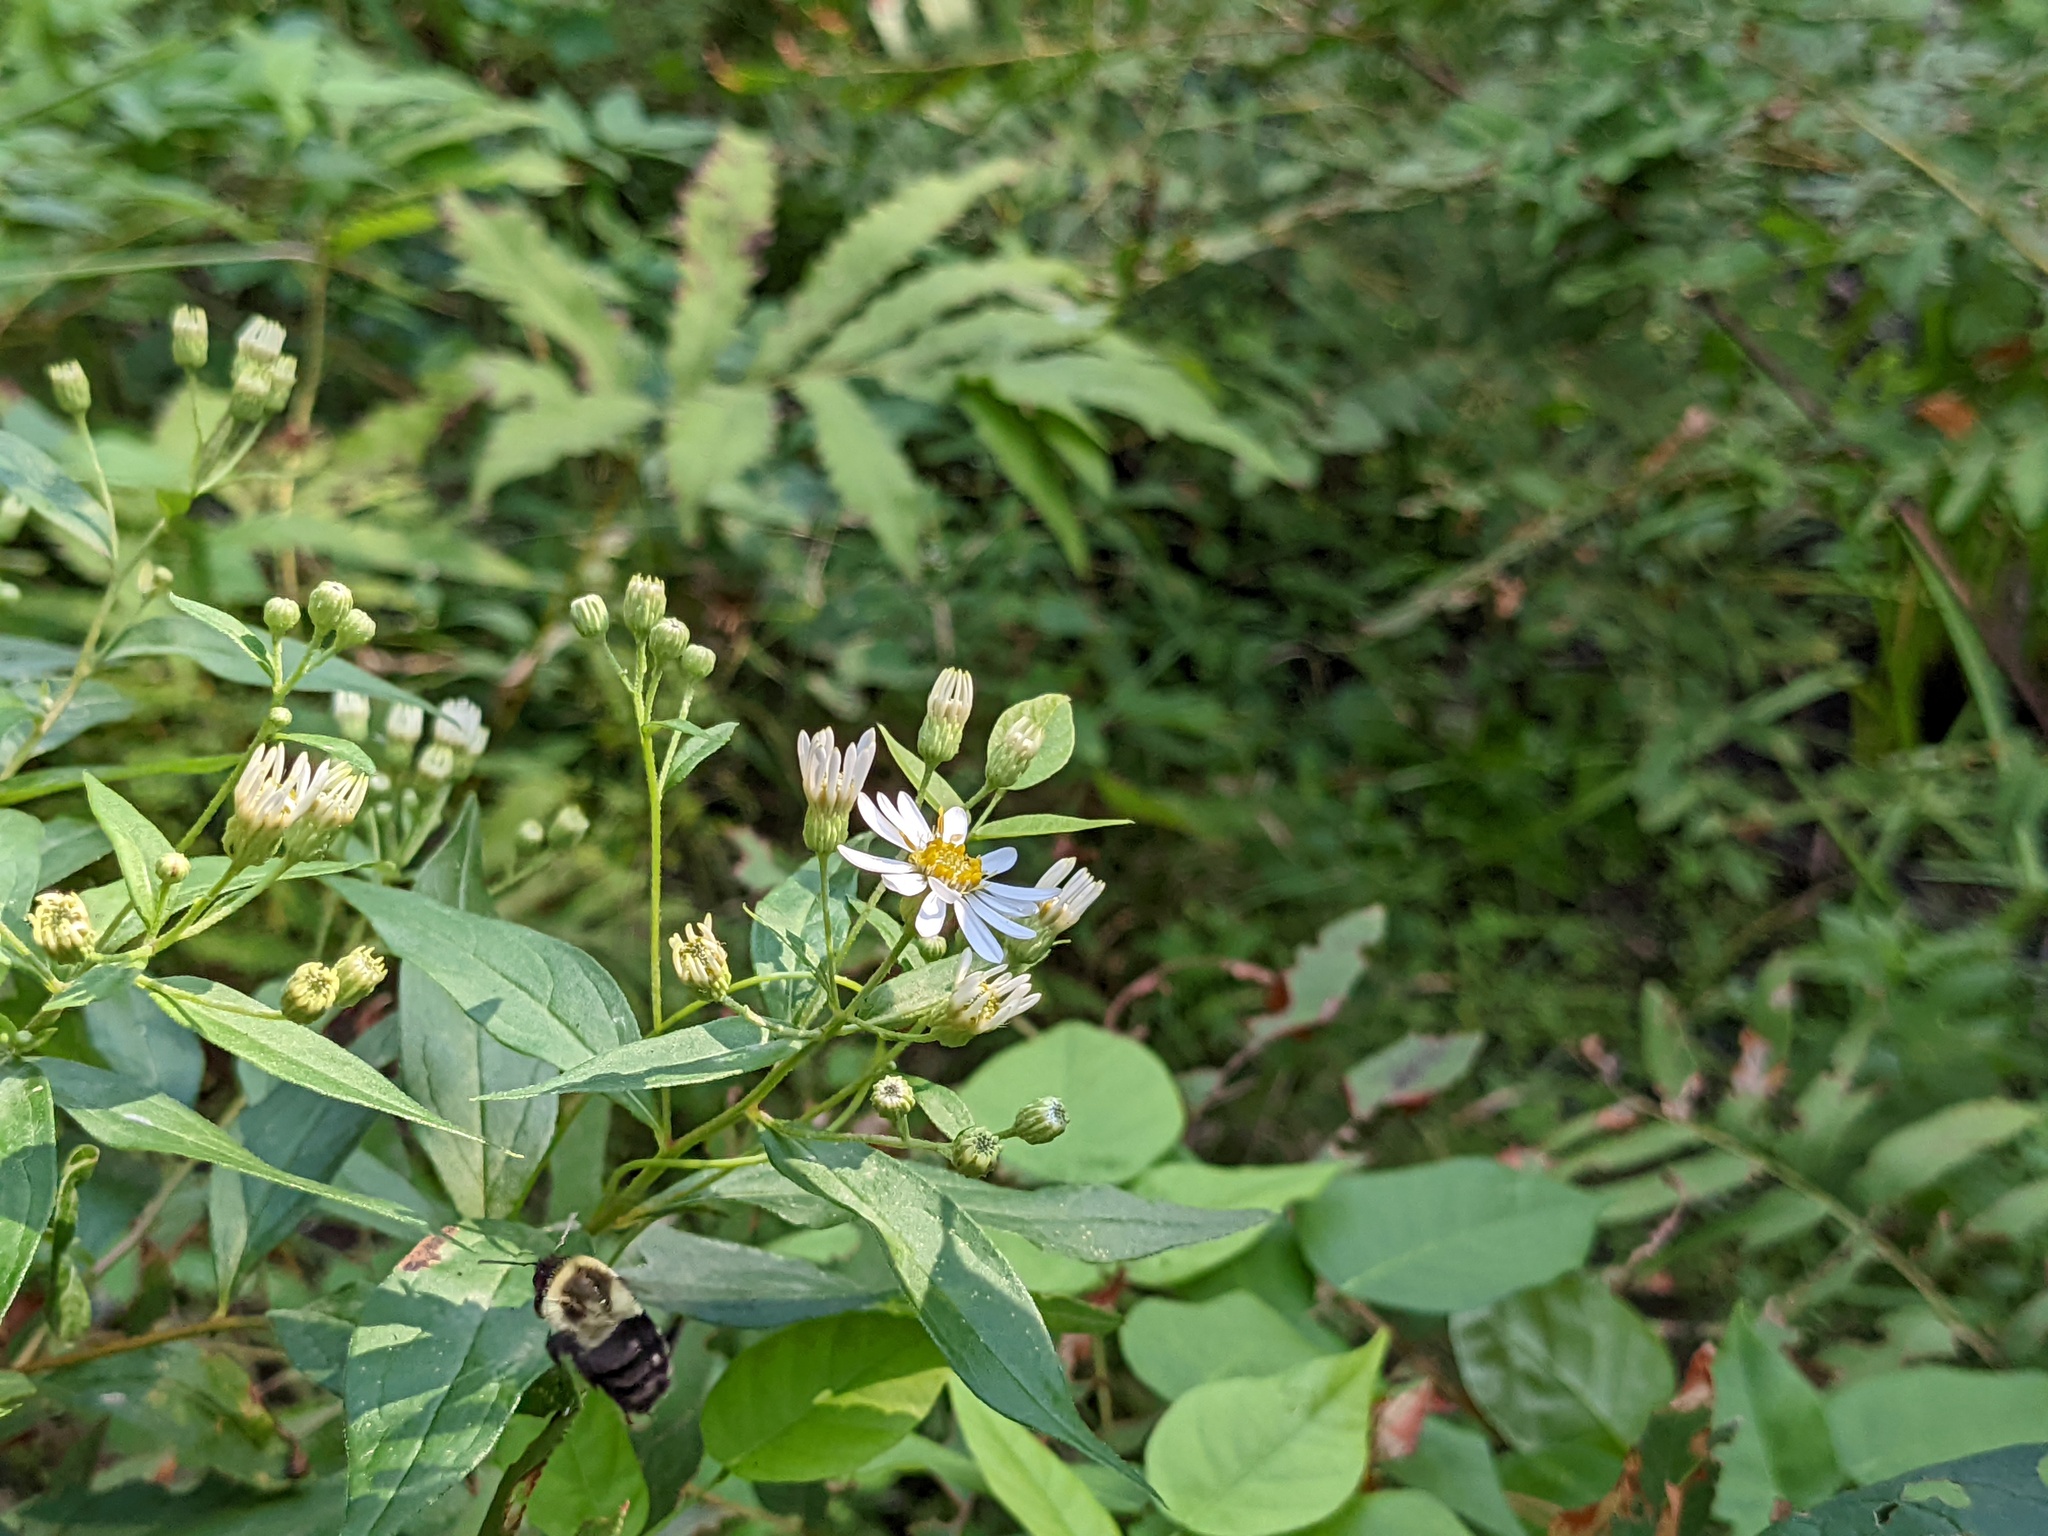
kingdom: Animalia
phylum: Arthropoda
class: Insecta
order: Hymenoptera
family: Apidae
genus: Bombus
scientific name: Bombus impatiens
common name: Common eastern bumble bee
